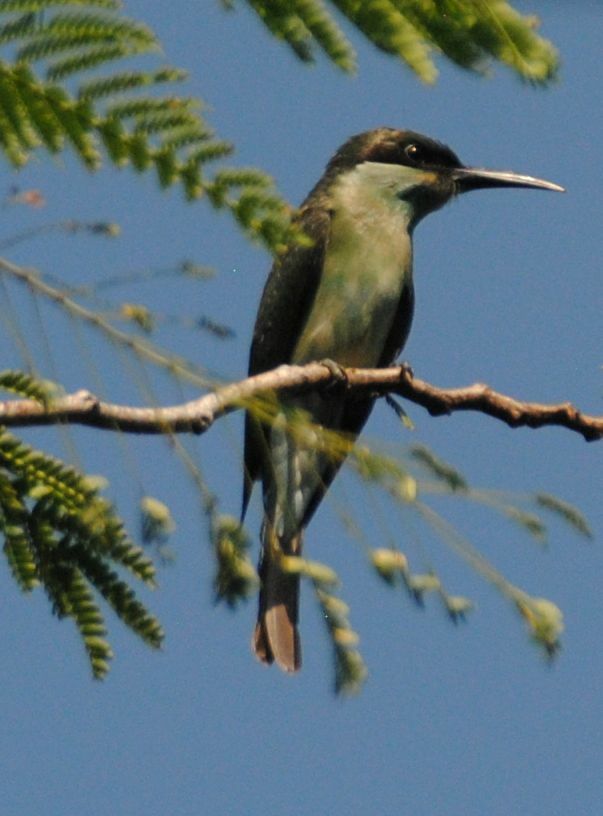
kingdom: Animalia
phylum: Chordata
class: Aves
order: Coraciiformes
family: Meropidae
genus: Merops
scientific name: Merops viridis
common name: Blue-throated bee-eater
